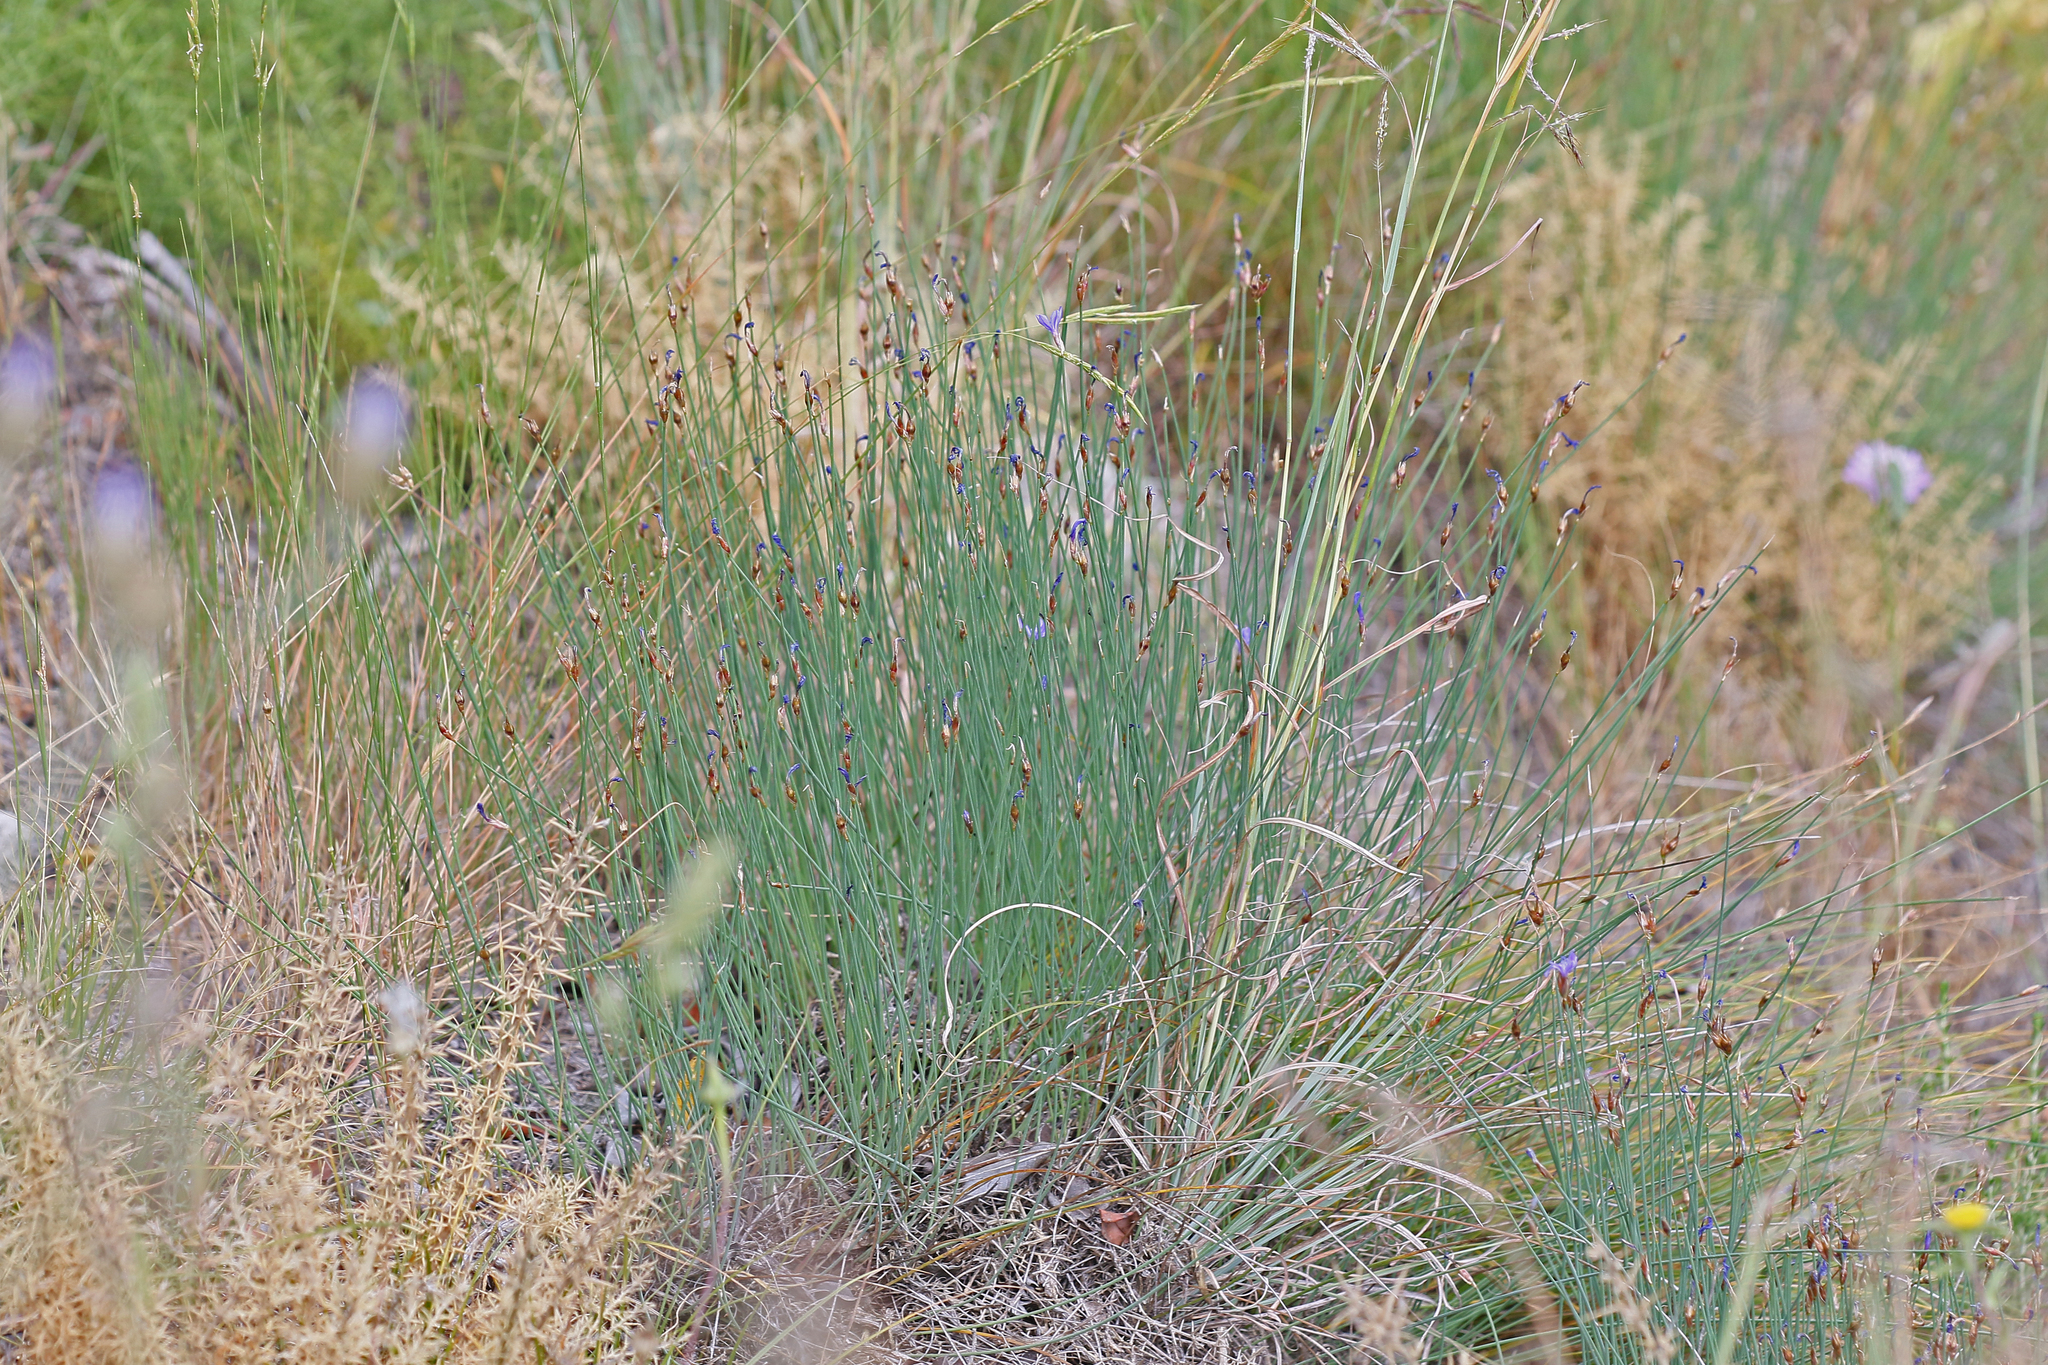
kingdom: Plantae
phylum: Tracheophyta
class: Liliopsida
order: Asparagales
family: Asparagaceae
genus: Aphyllanthes
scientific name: Aphyllanthes monspeliensis
